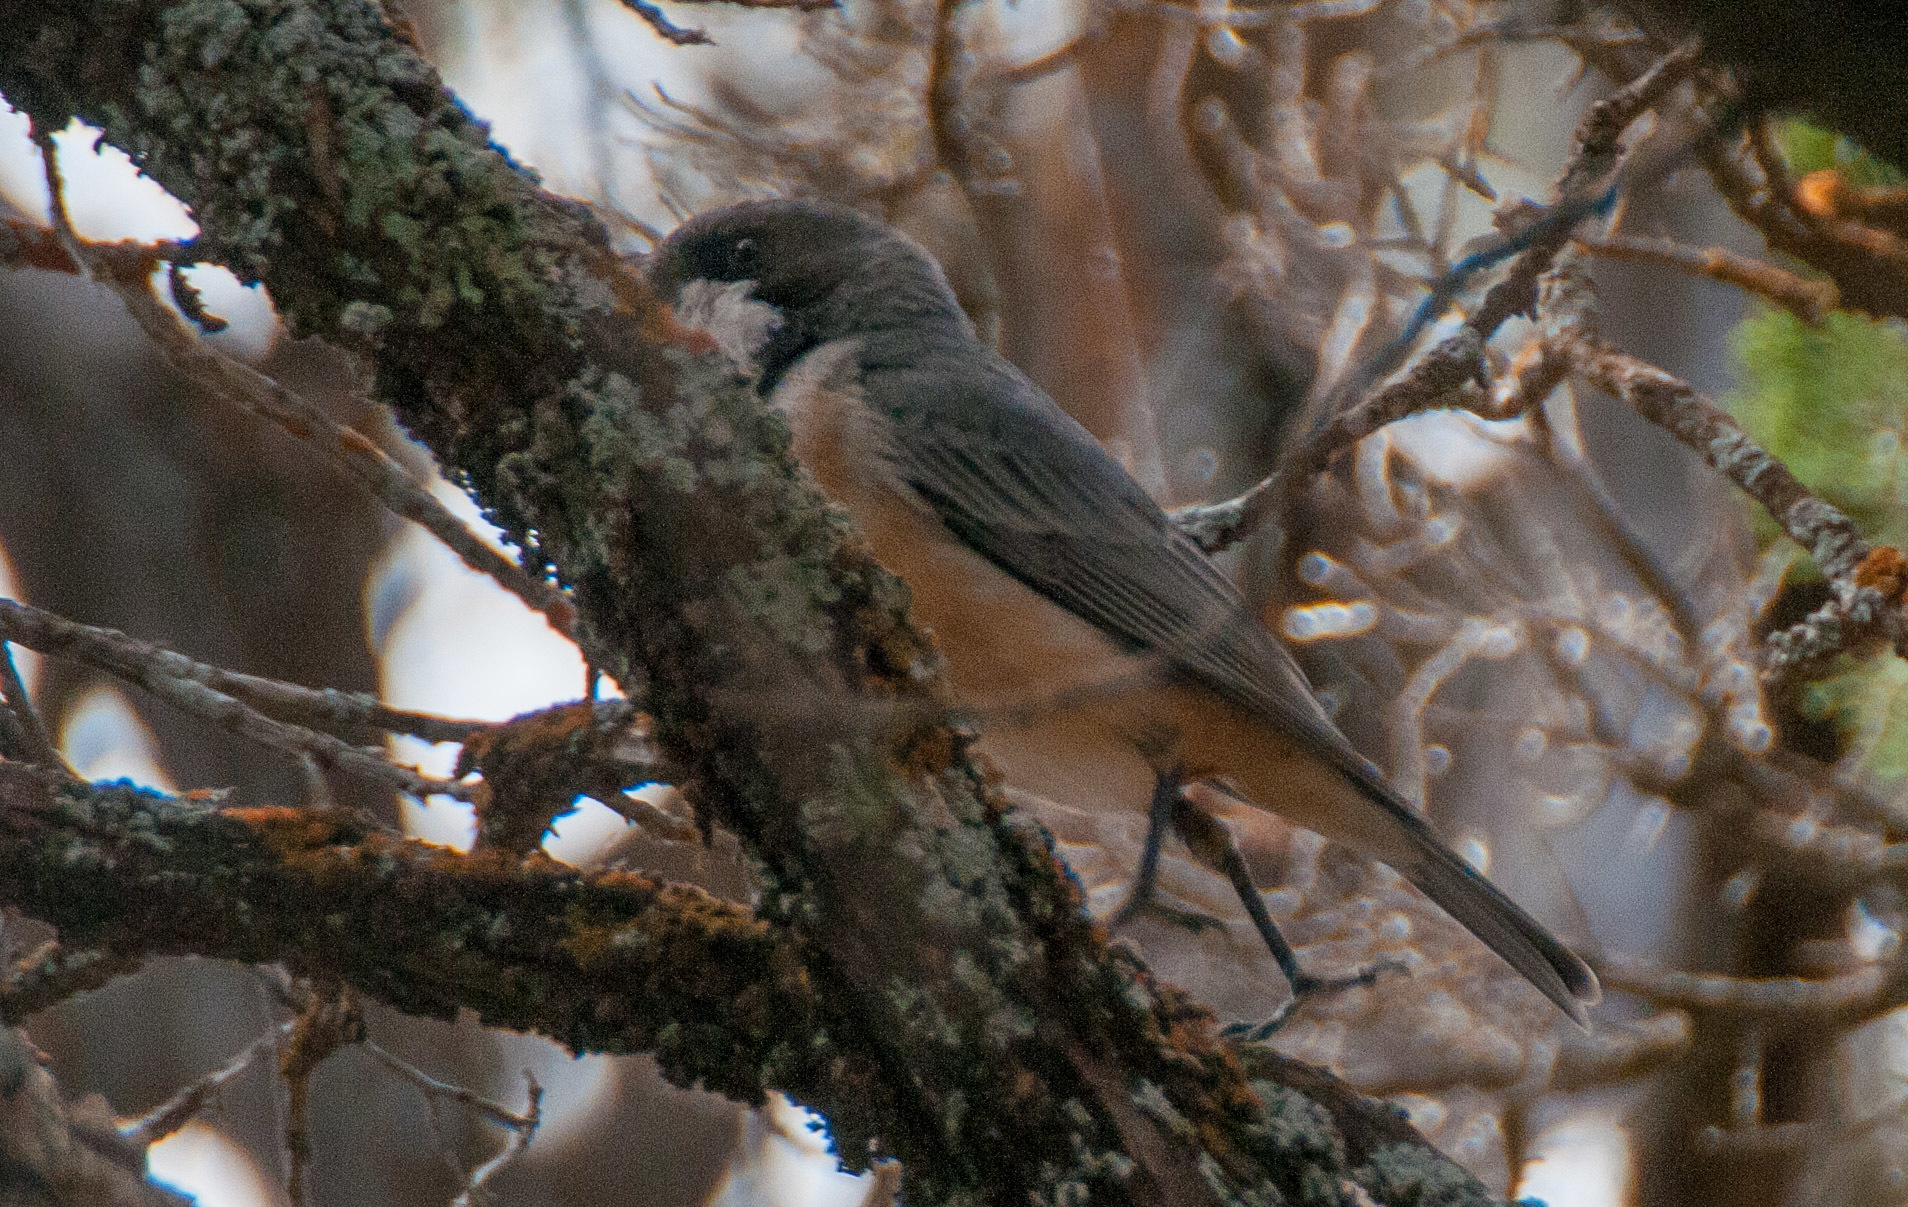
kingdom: Animalia
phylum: Chordata
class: Aves
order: Passeriformes
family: Pachycephalidae
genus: Pachycephala
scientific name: Pachycephala rufiventris
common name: Rufous whistler
